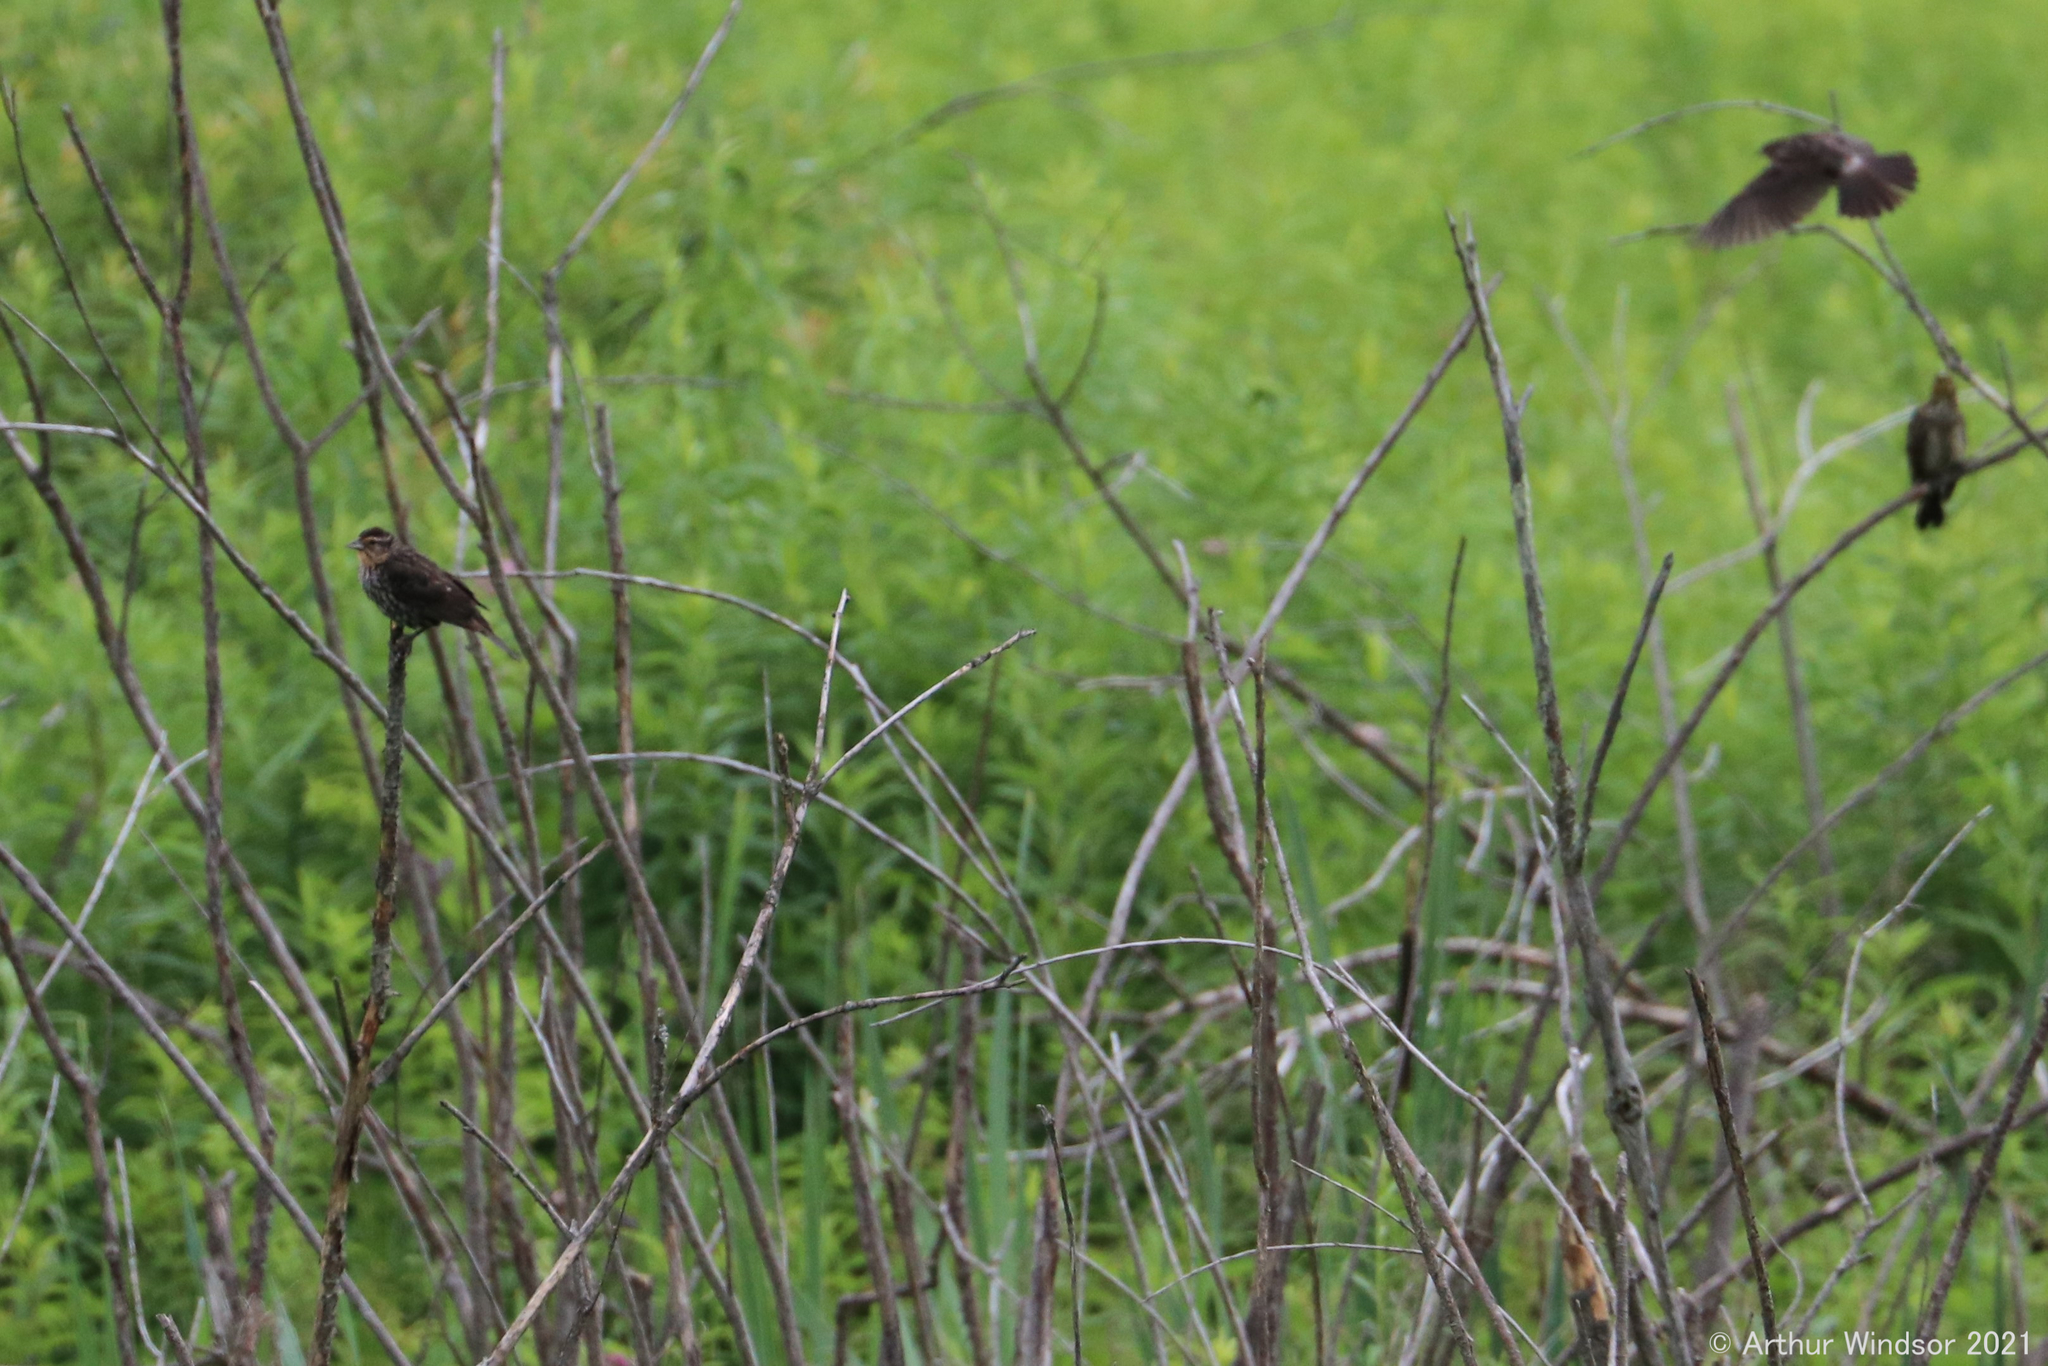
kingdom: Animalia
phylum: Chordata
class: Aves
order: Passeriformes
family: Icteridae
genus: Agelaius
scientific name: Agelaius phoeniceus
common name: Red-winged blackbird
